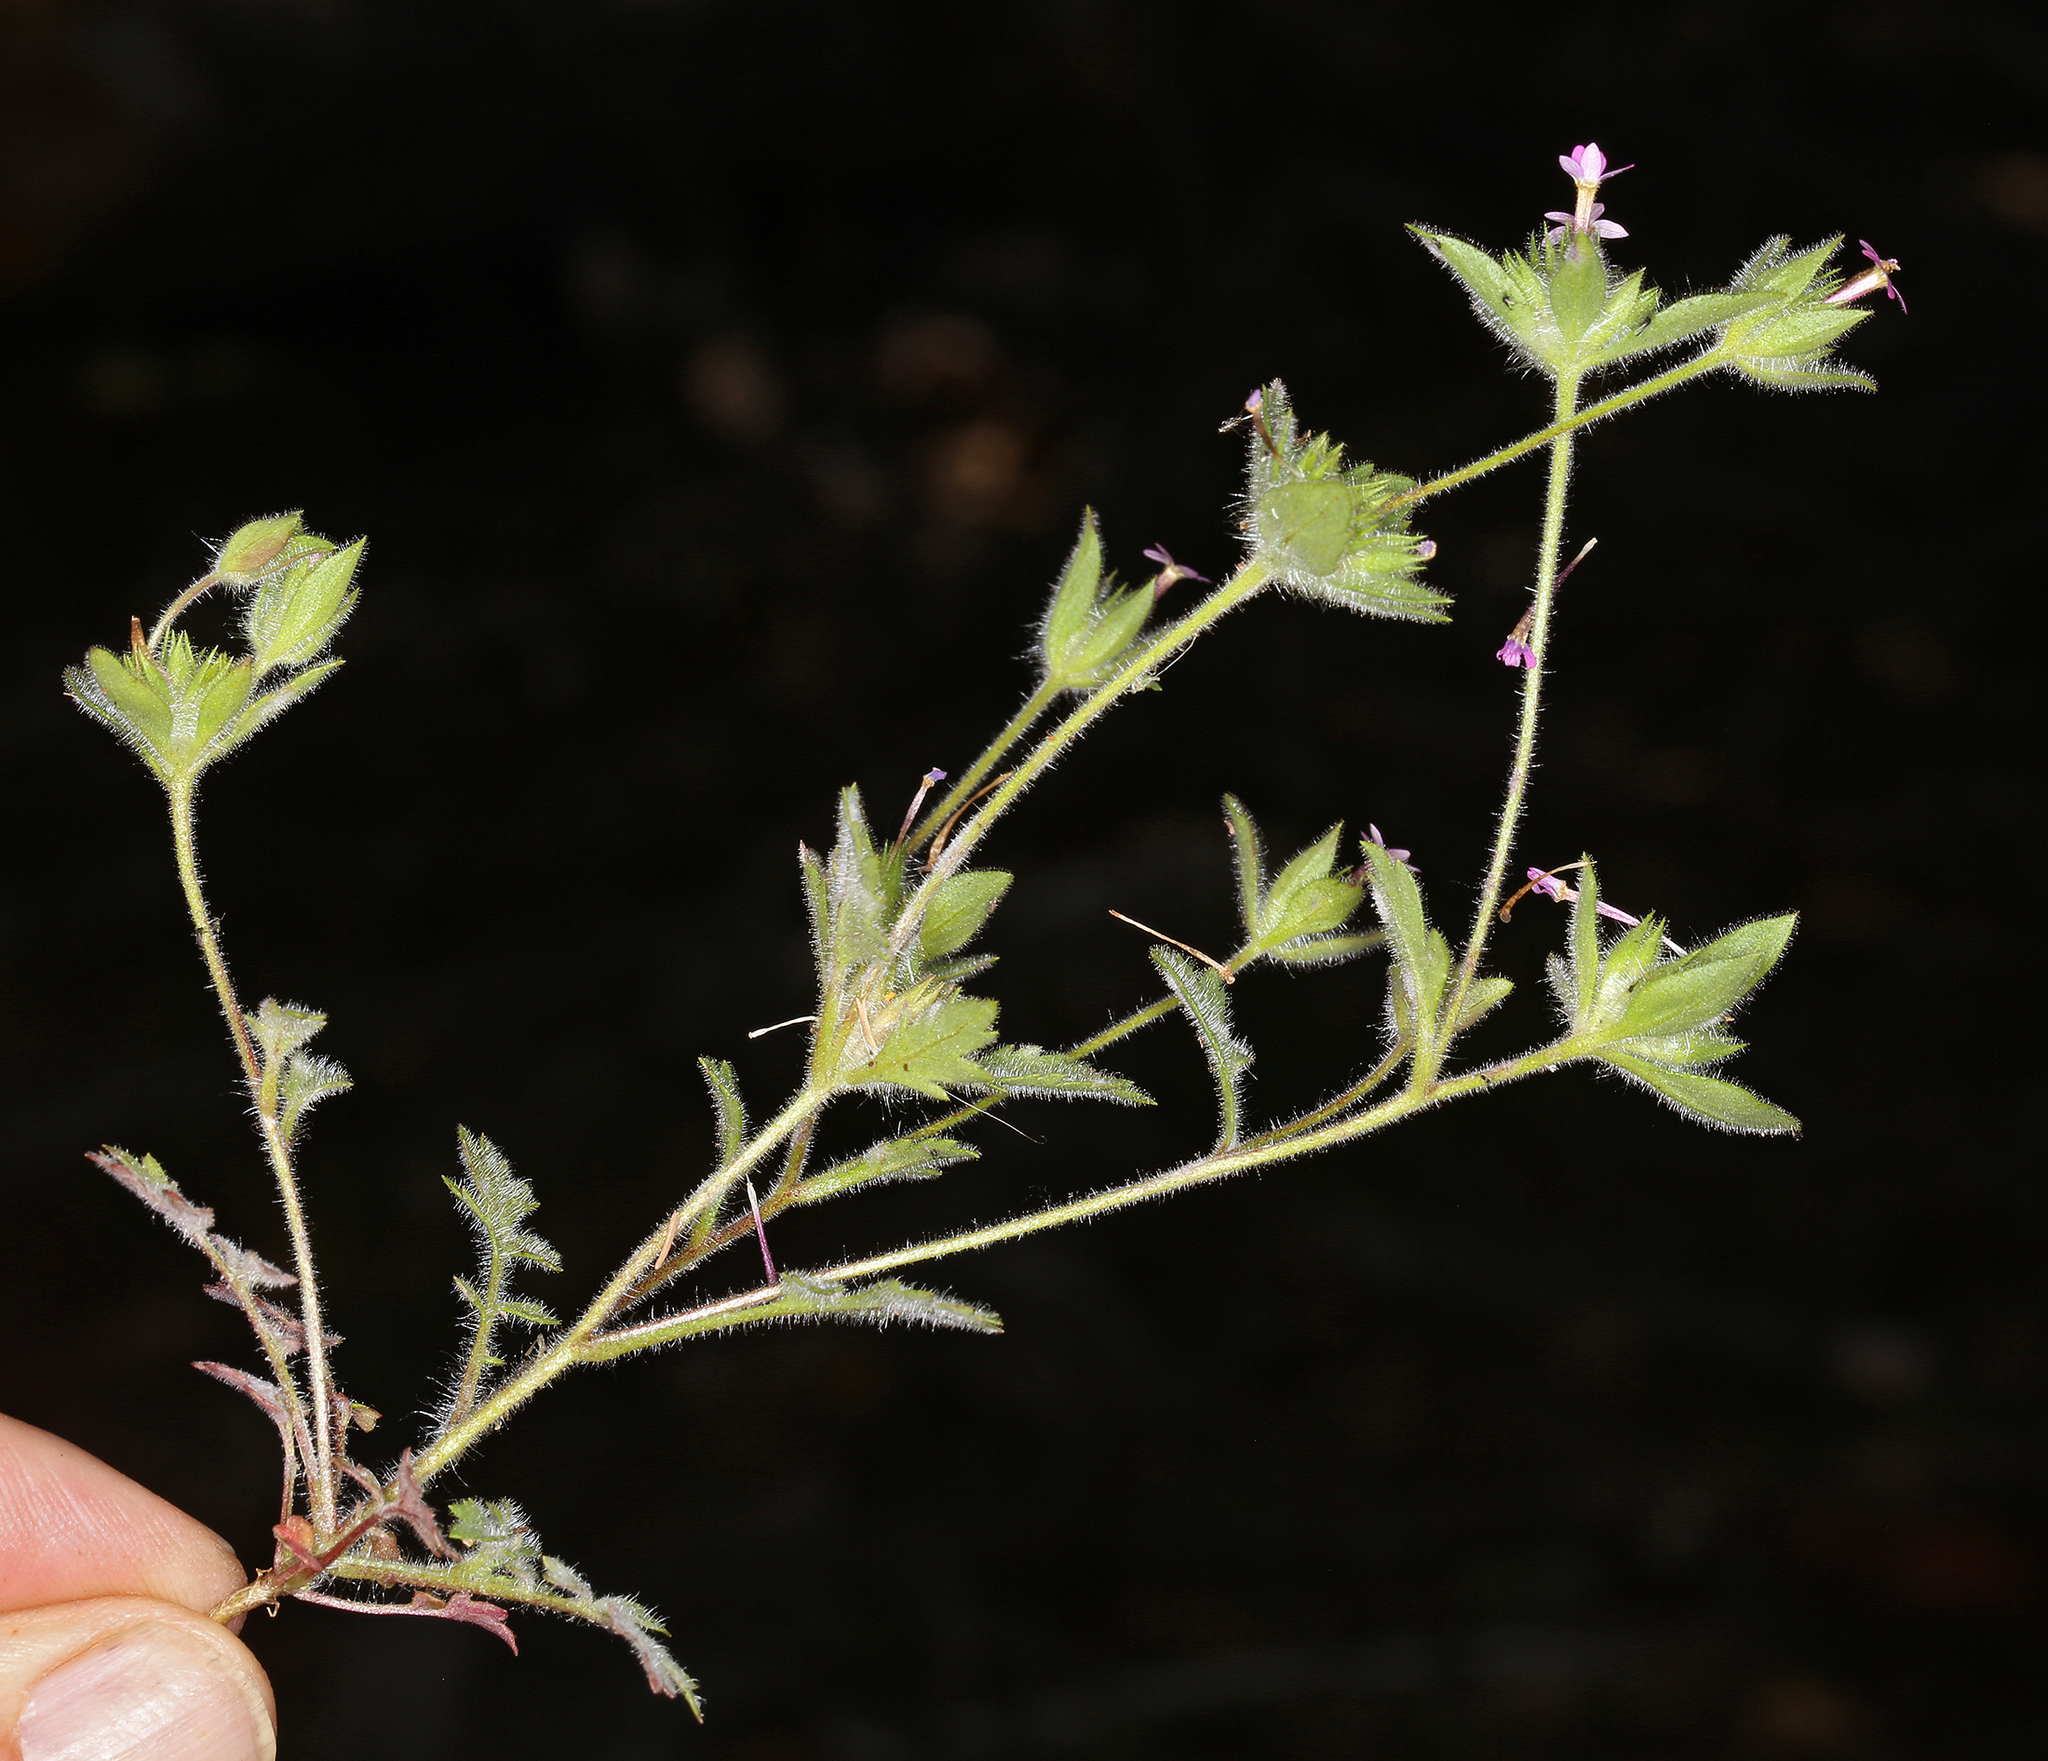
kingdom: Plantae
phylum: Tracheophyta
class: Magnoliopsida
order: Ericales
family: Polemoniaceae
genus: Collomia
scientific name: Collomia heterophylla
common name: Variable-leaved collomia
